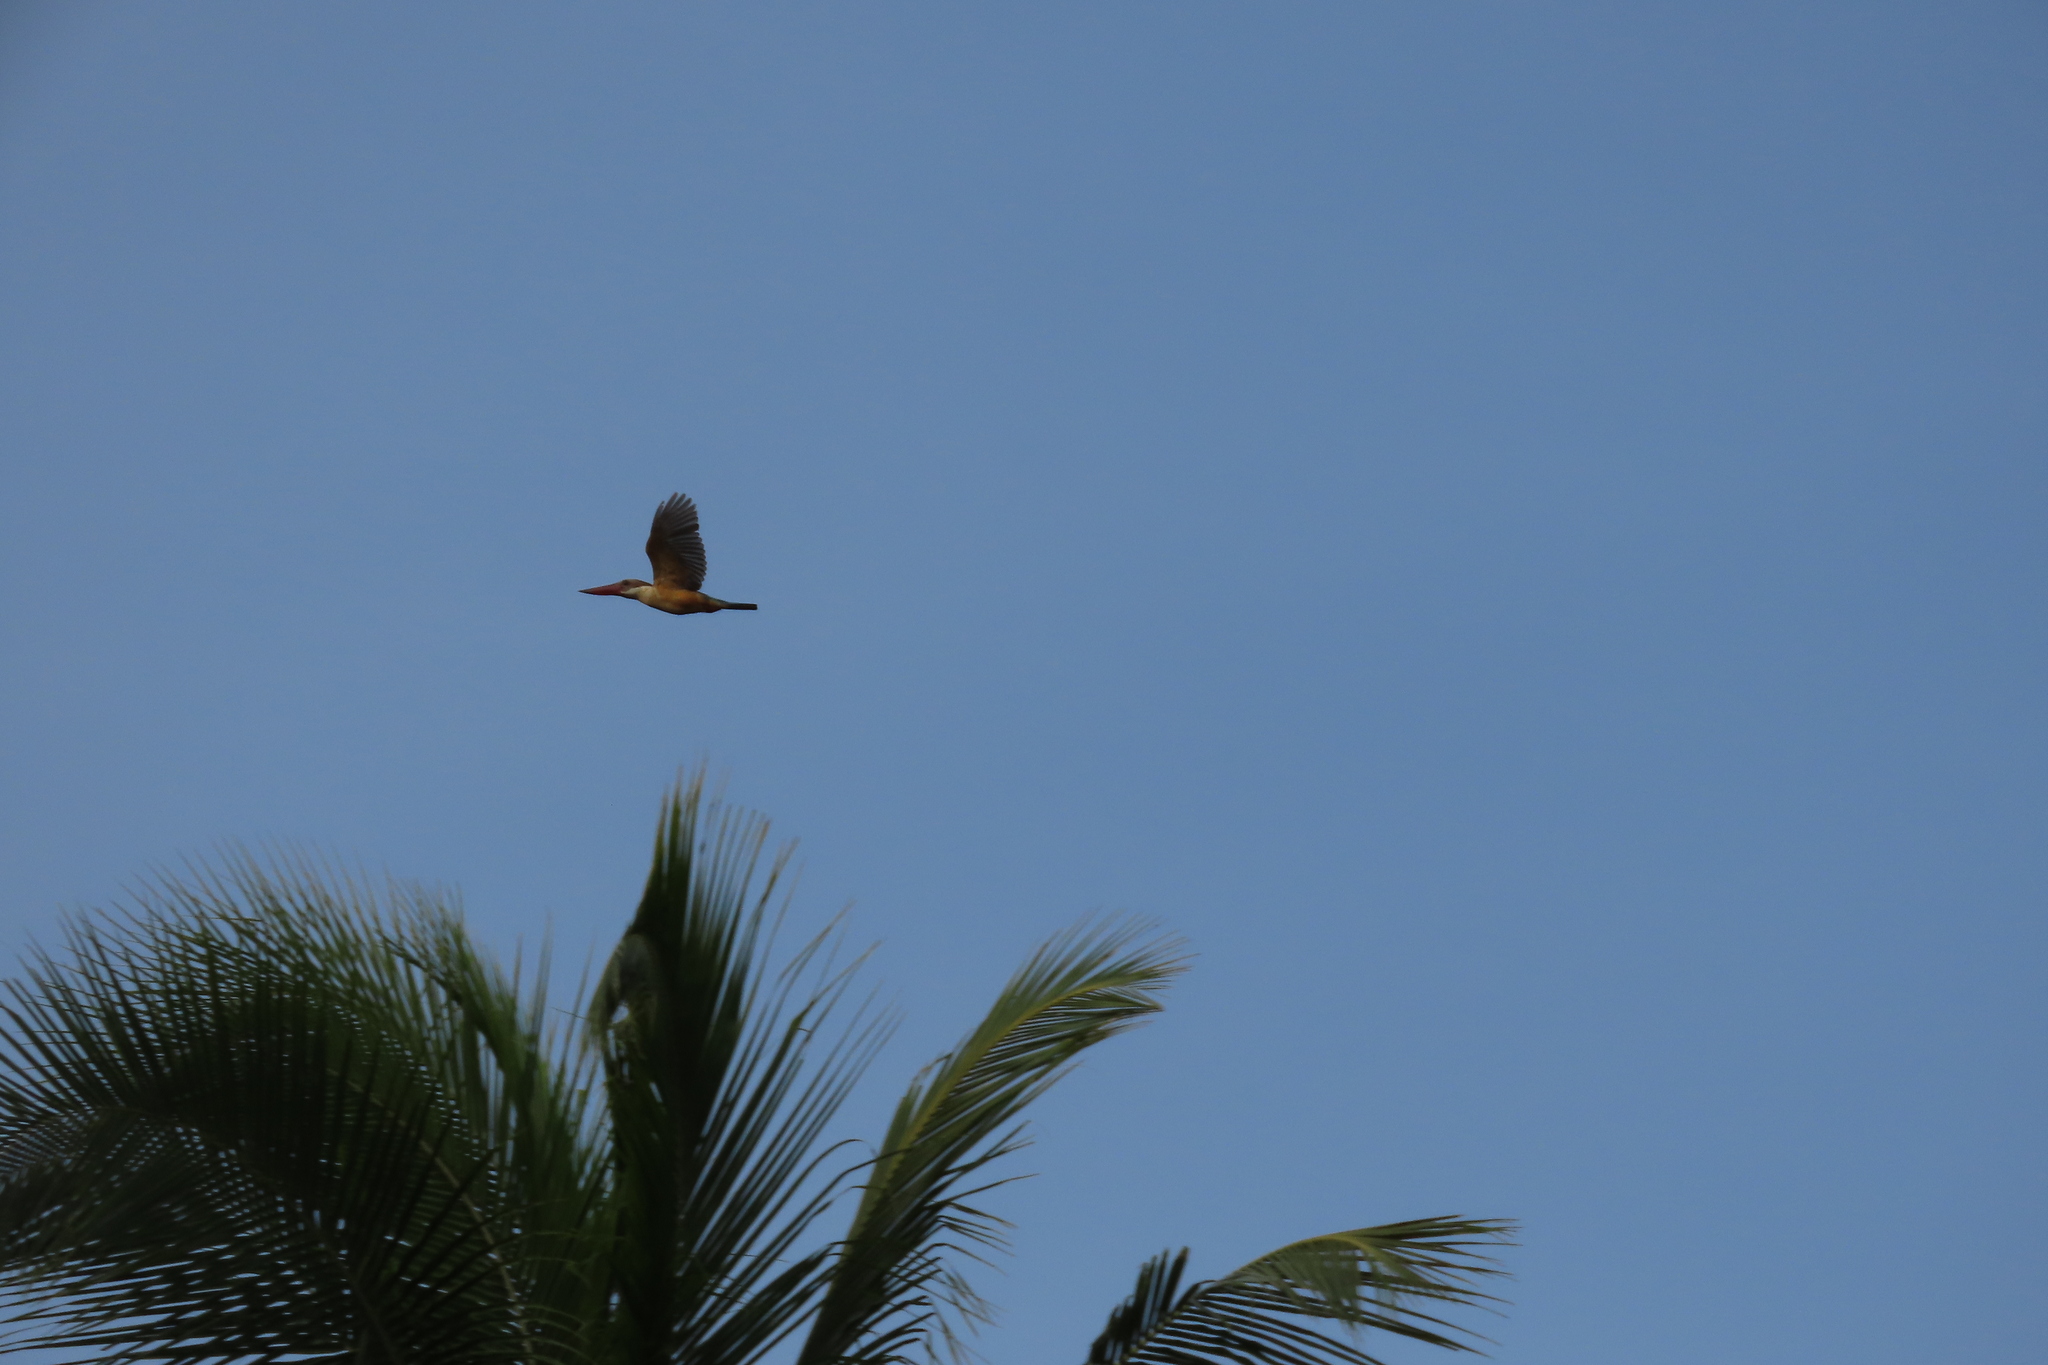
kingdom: Animalia
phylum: Chordata
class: Aves
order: Coraciiformes
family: Alcedinidae
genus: Pelargopsis
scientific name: Pelargopsis capensis
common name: Stork-billed kingfisher
